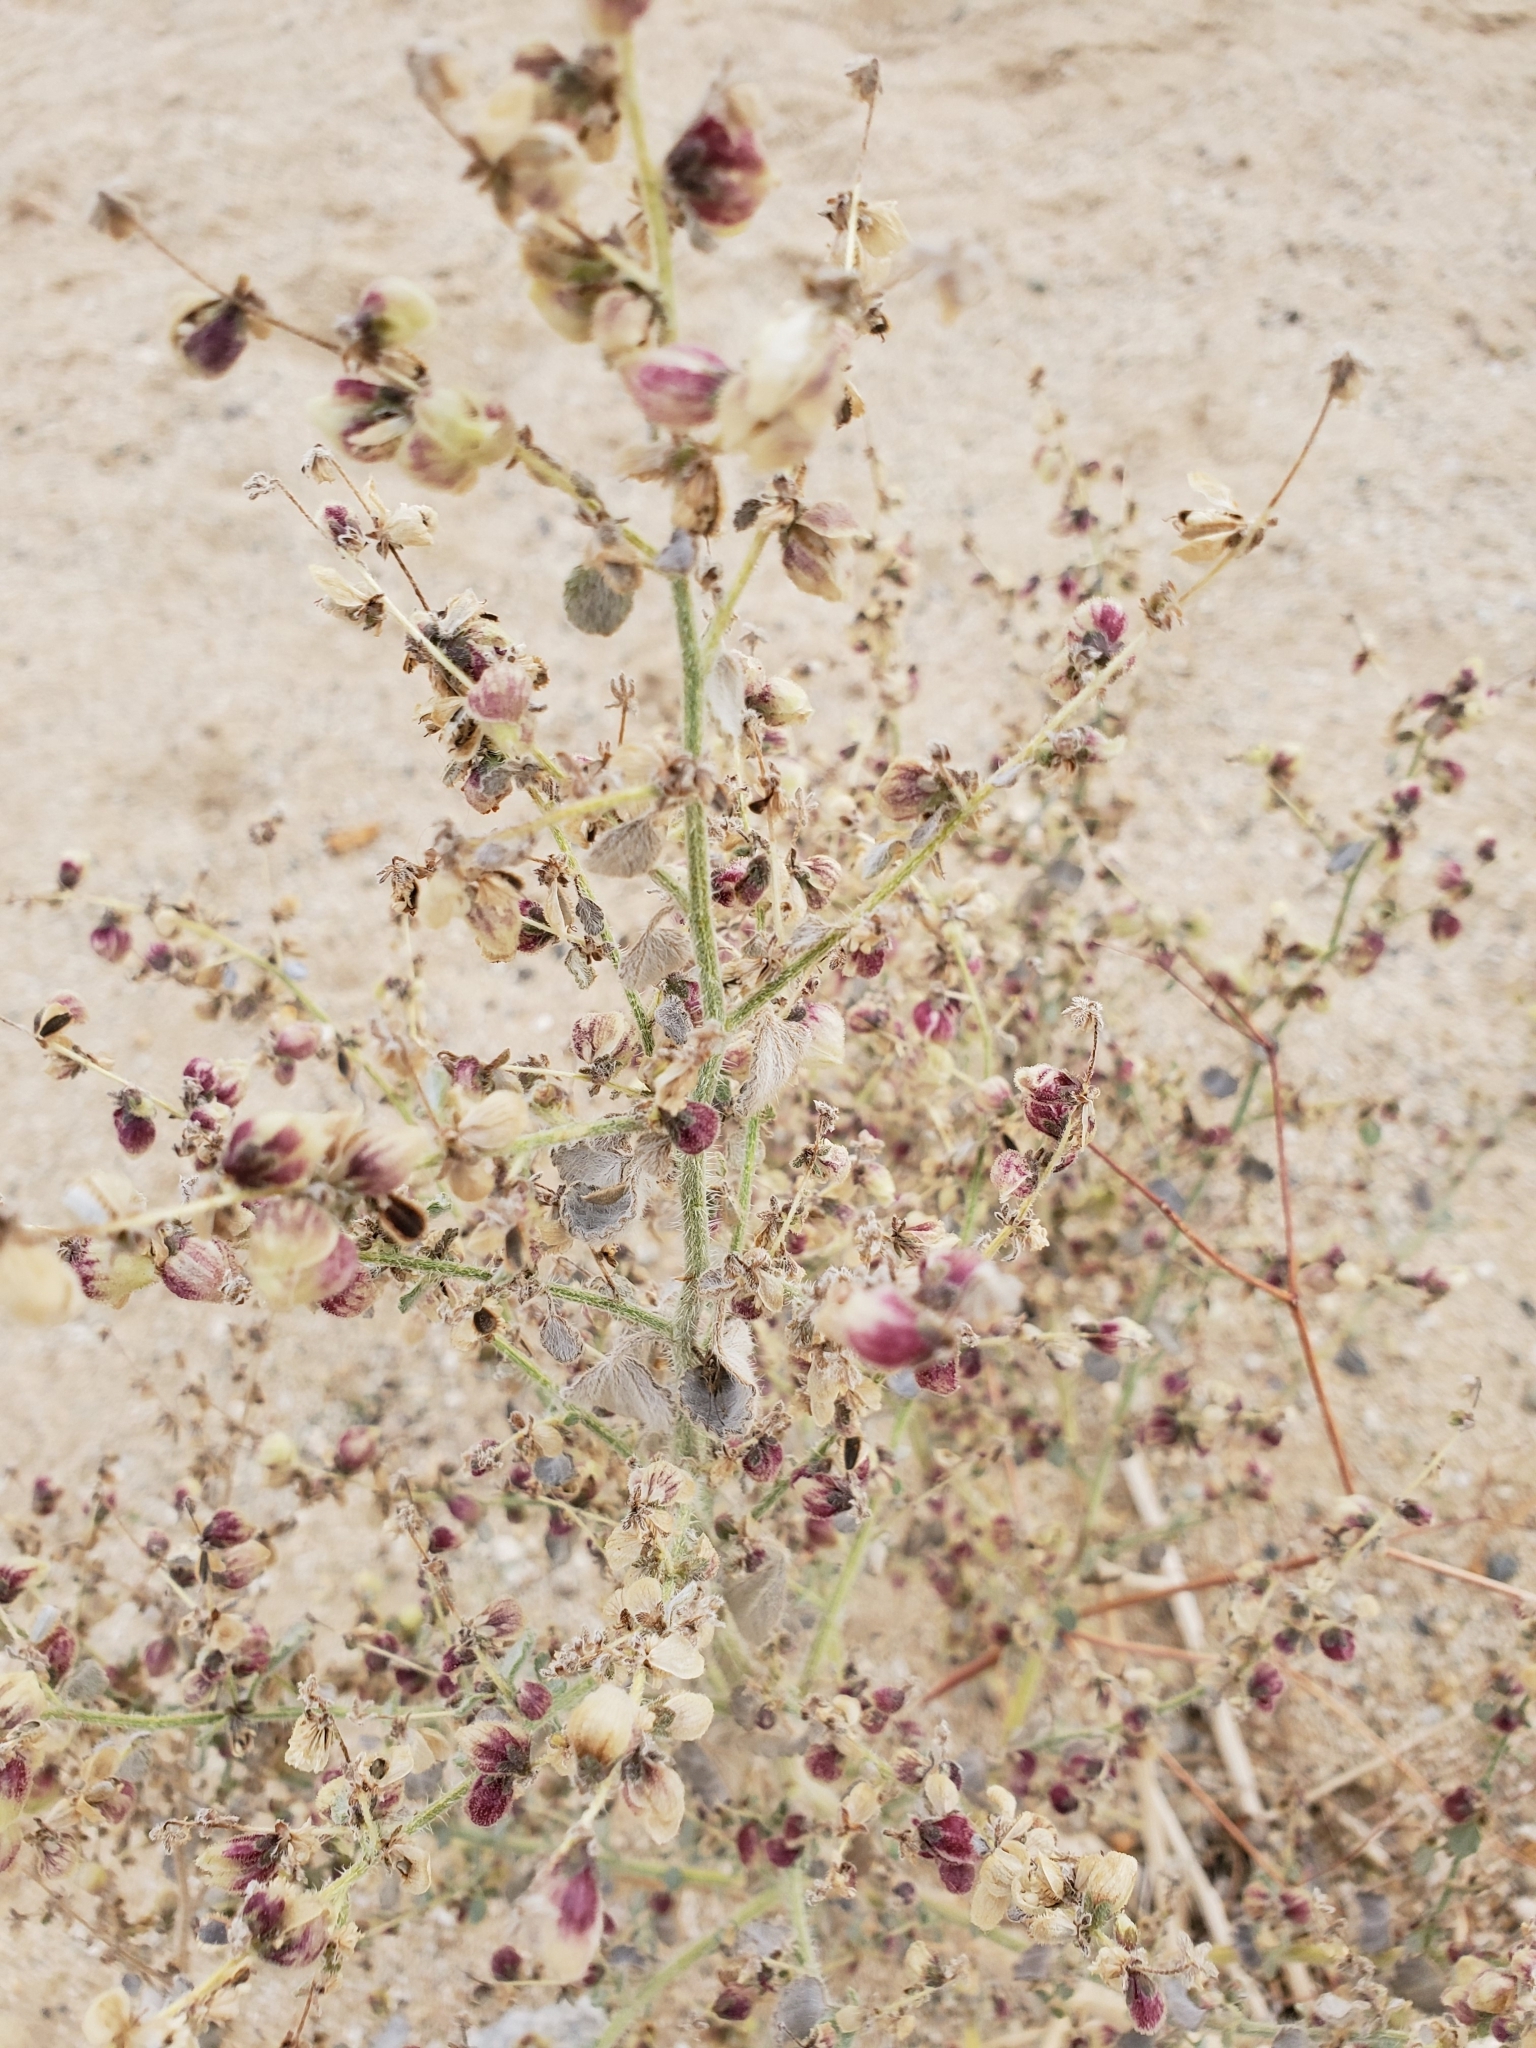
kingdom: Plantae
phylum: Tracheophyta
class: Magnoliopsida
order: Asterales
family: Asteraceae
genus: Dicoria
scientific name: Dicoria canescens
